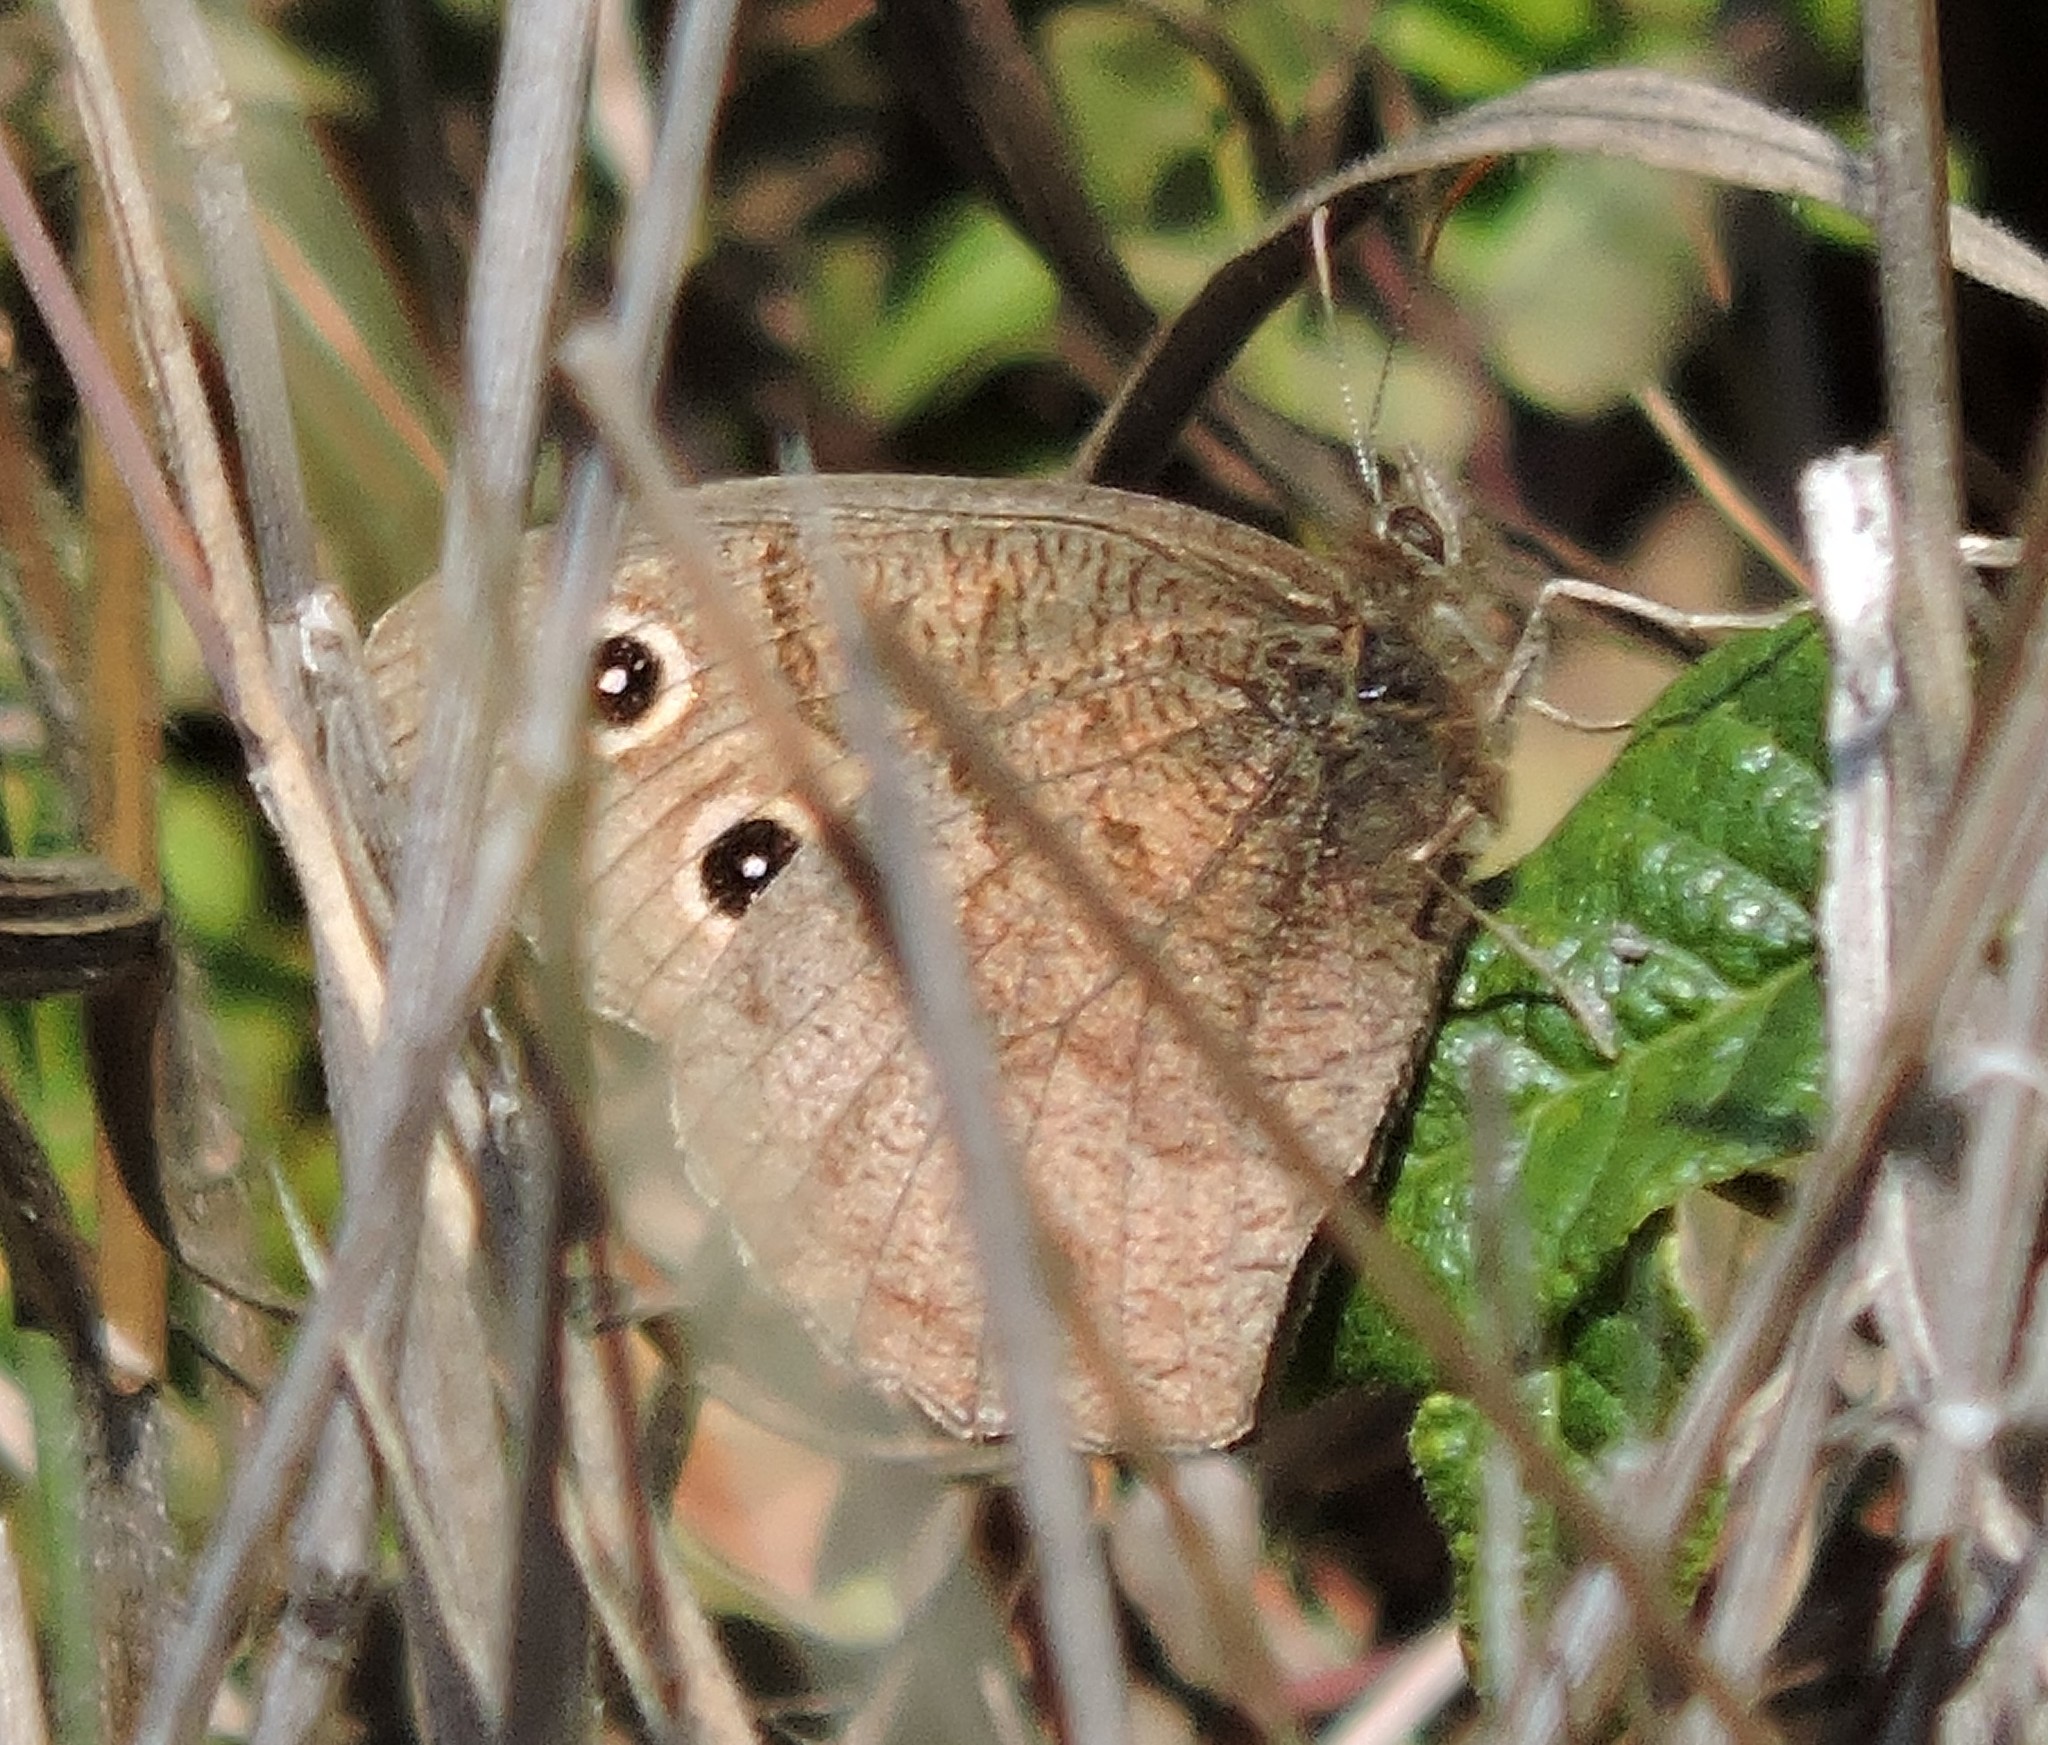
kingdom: Animalia
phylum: Arthropoda
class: Insecta
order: Lepidoptera
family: Nymphalidae
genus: Cercyonis
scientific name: Cercyonis pegala
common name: Common wood-nymph
